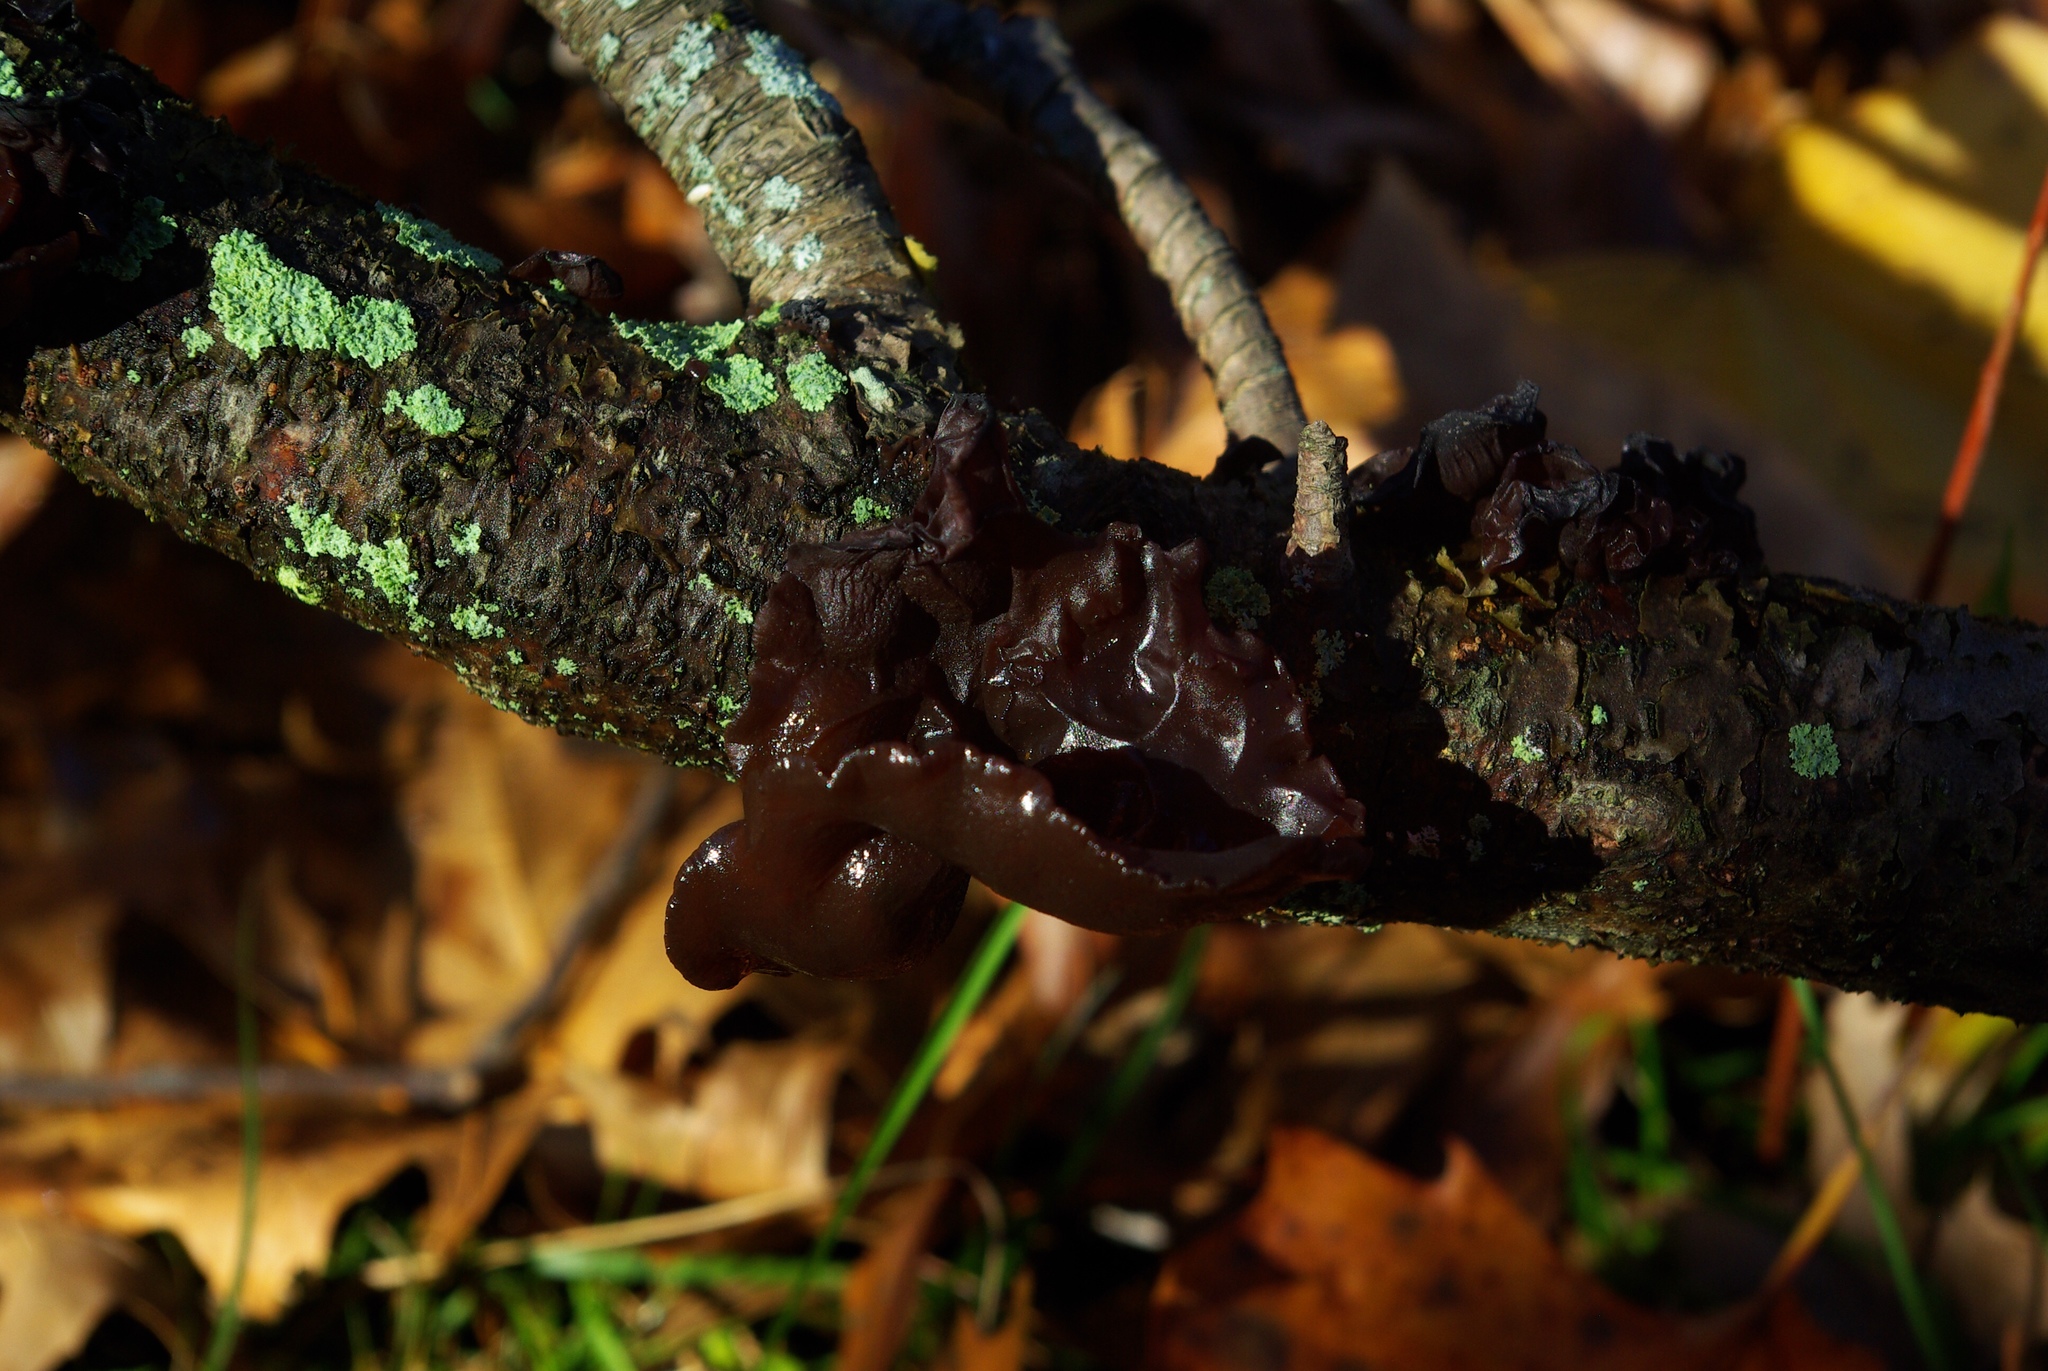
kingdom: Fungi
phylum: Basidiomycota
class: Agaricomycetes
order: Auriculariales
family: Auriculariaceae
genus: Exidia
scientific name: Exidia
